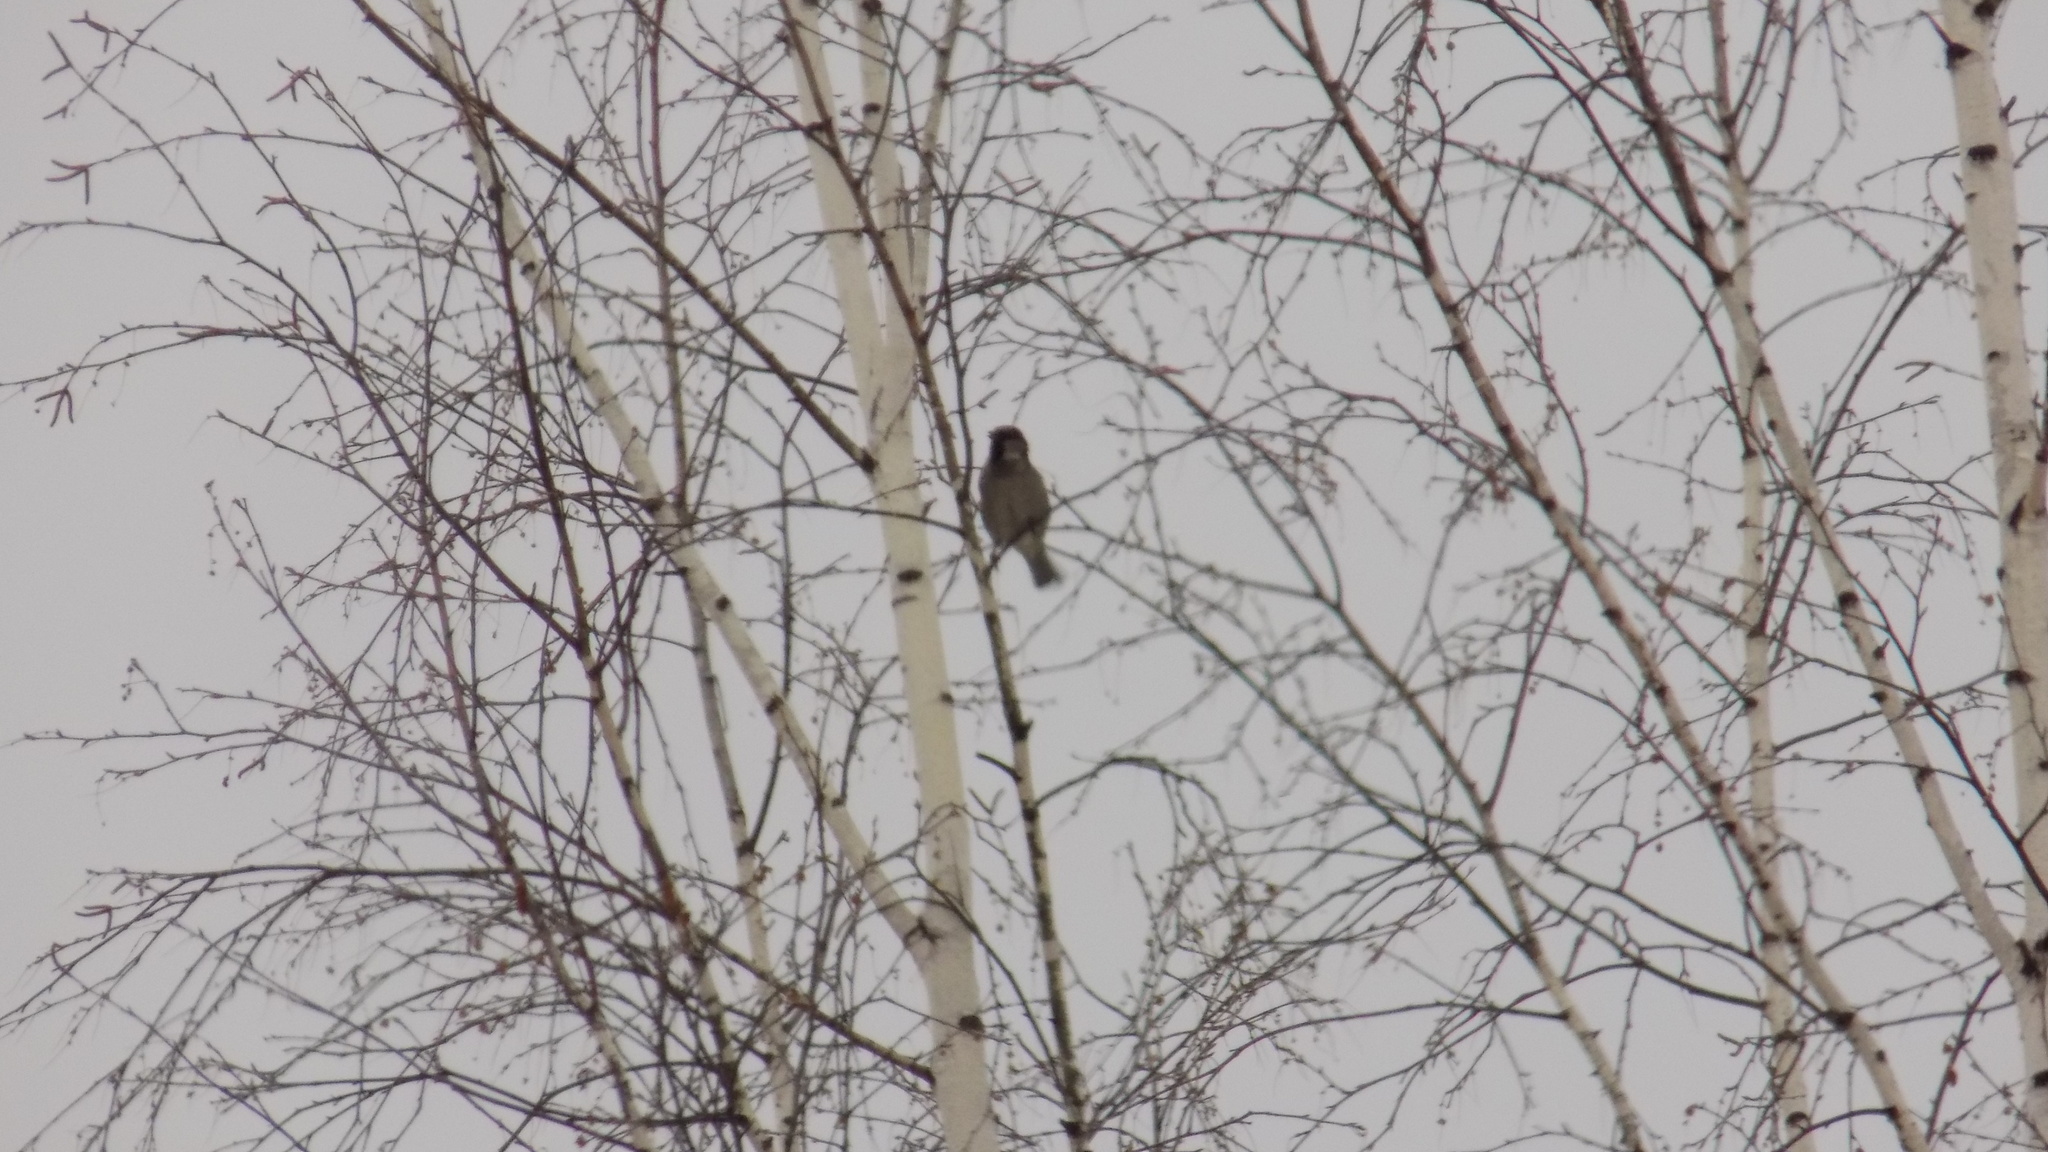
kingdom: Animalia
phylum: Chordata
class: Aves
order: Passeriformes
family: Passeridae
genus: Passer
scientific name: Passer domesticus
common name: House sparrow
